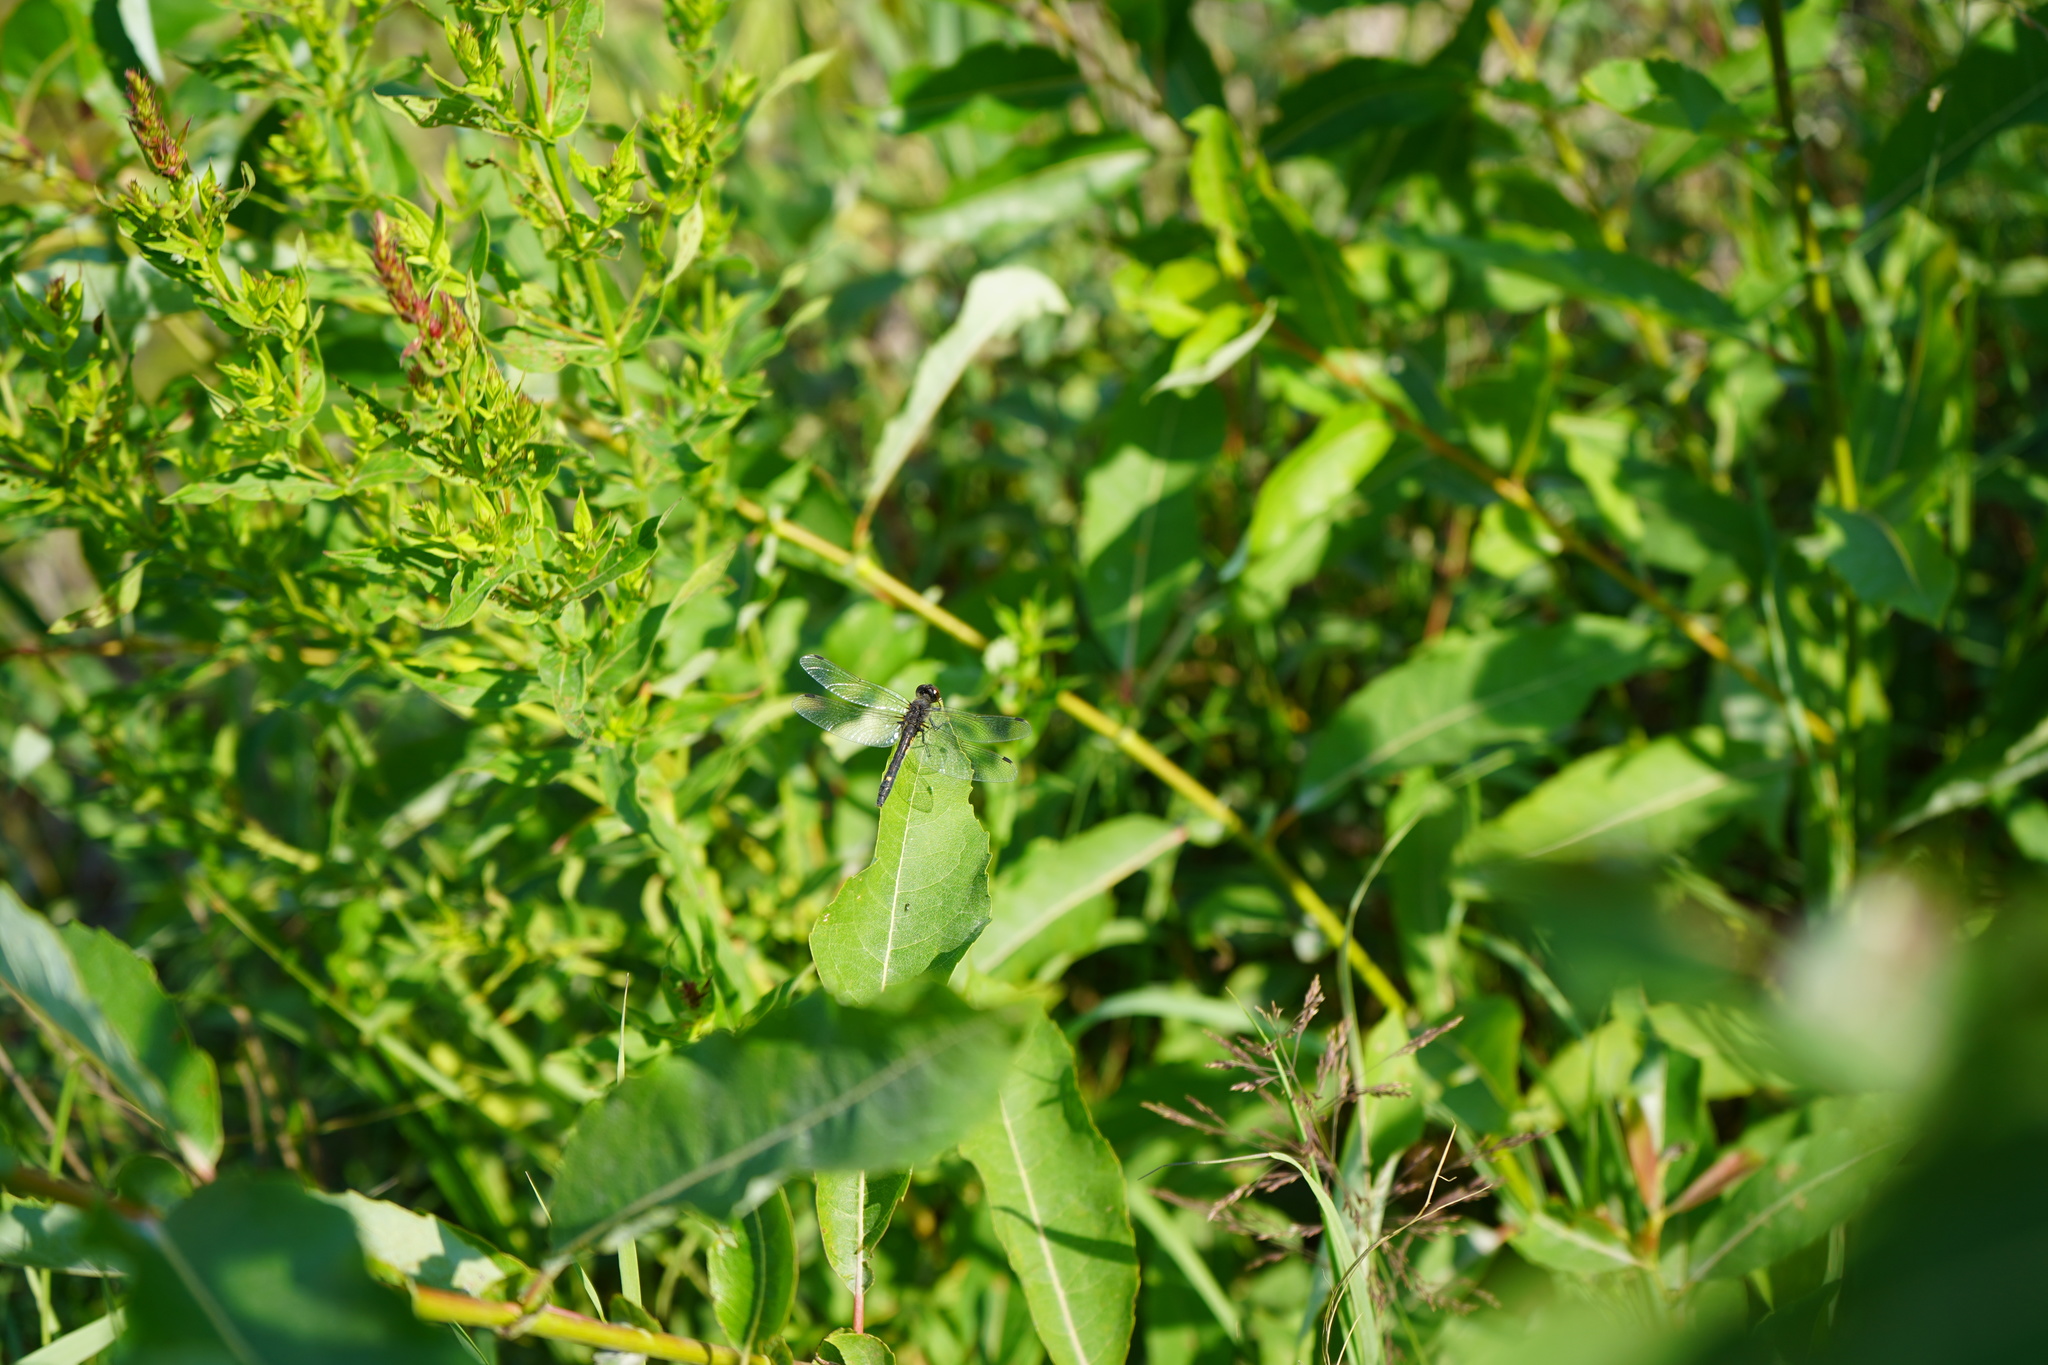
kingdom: Animalia
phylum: Arthropoda
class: Insecta
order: Odonata
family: Libellulidae
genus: Leucorrhinia
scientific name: Leucorrhinia intacta
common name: Dot-tailed whiteface
